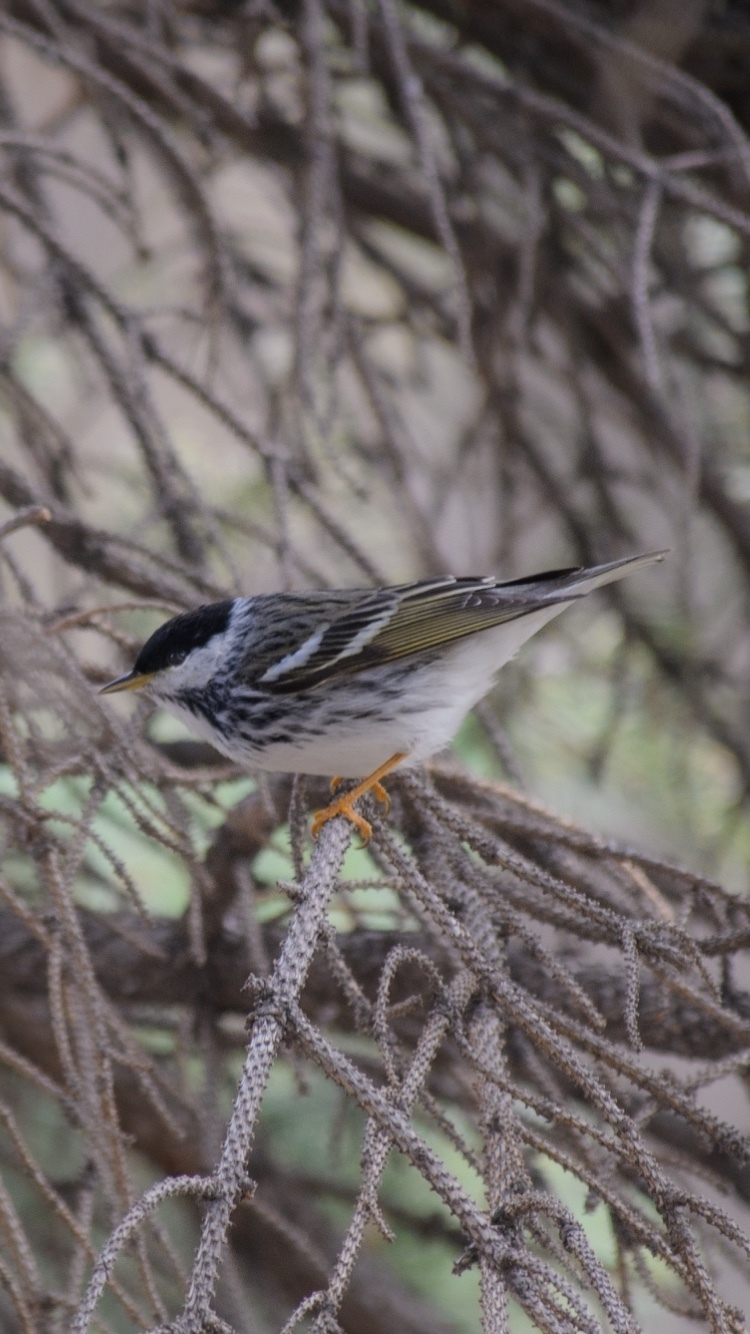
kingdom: Animalia
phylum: Chordata
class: Aves
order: Passeriformes
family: Parulidae
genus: Setophaga
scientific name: Setophaga striata
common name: Blackpoll warbler
